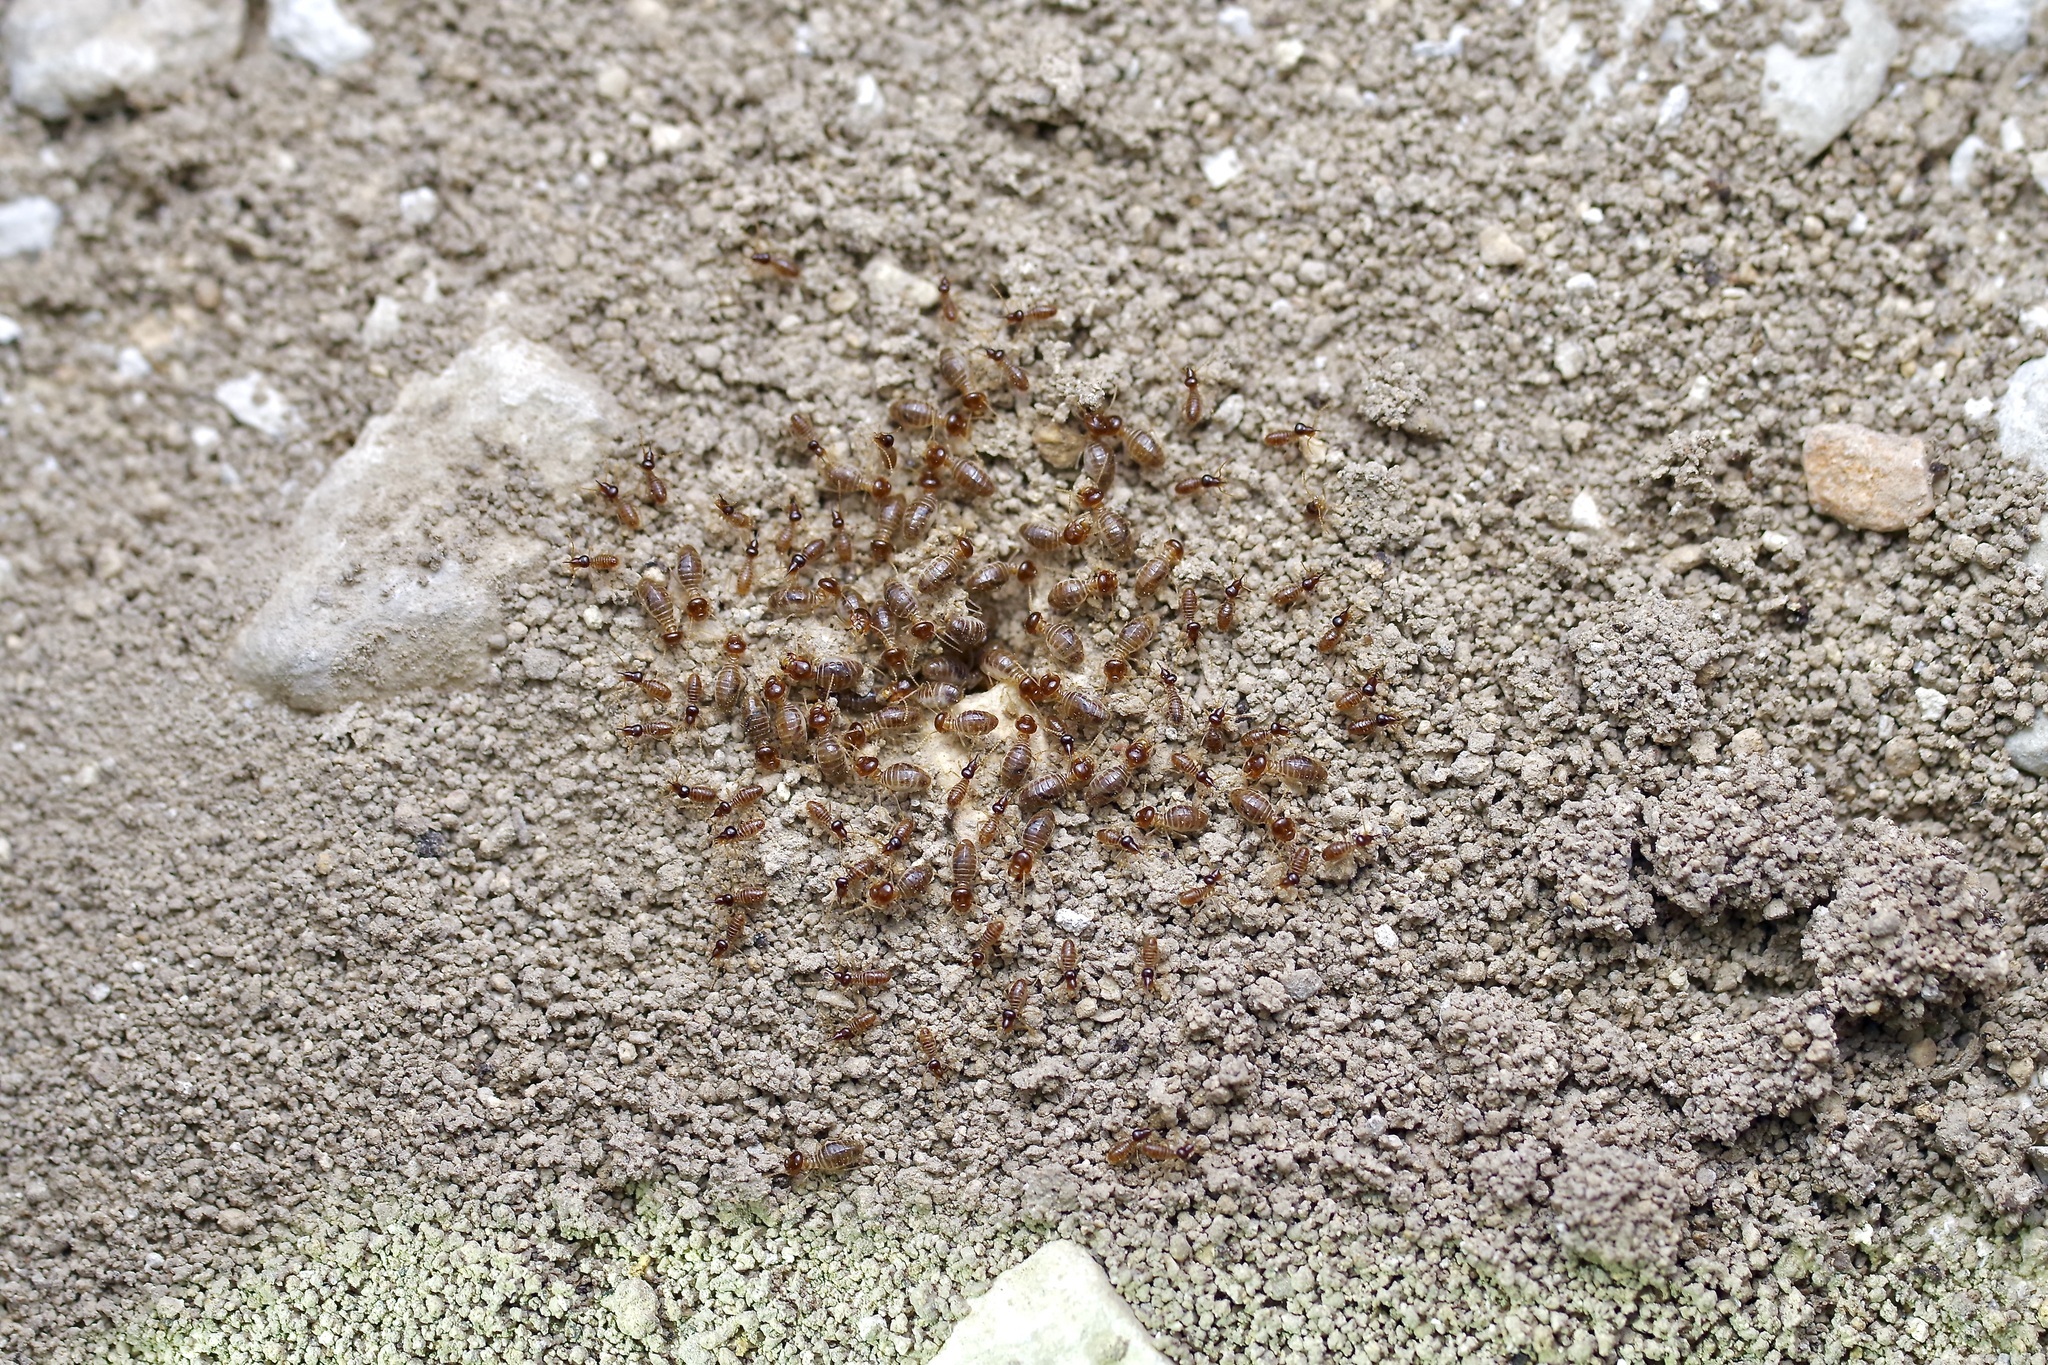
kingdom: Animalia
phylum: Arthropoda
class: Insecta
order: Blattodea
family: Termitidae
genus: Tenuirostritermes
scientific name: Tenuirostritermes cinereus
